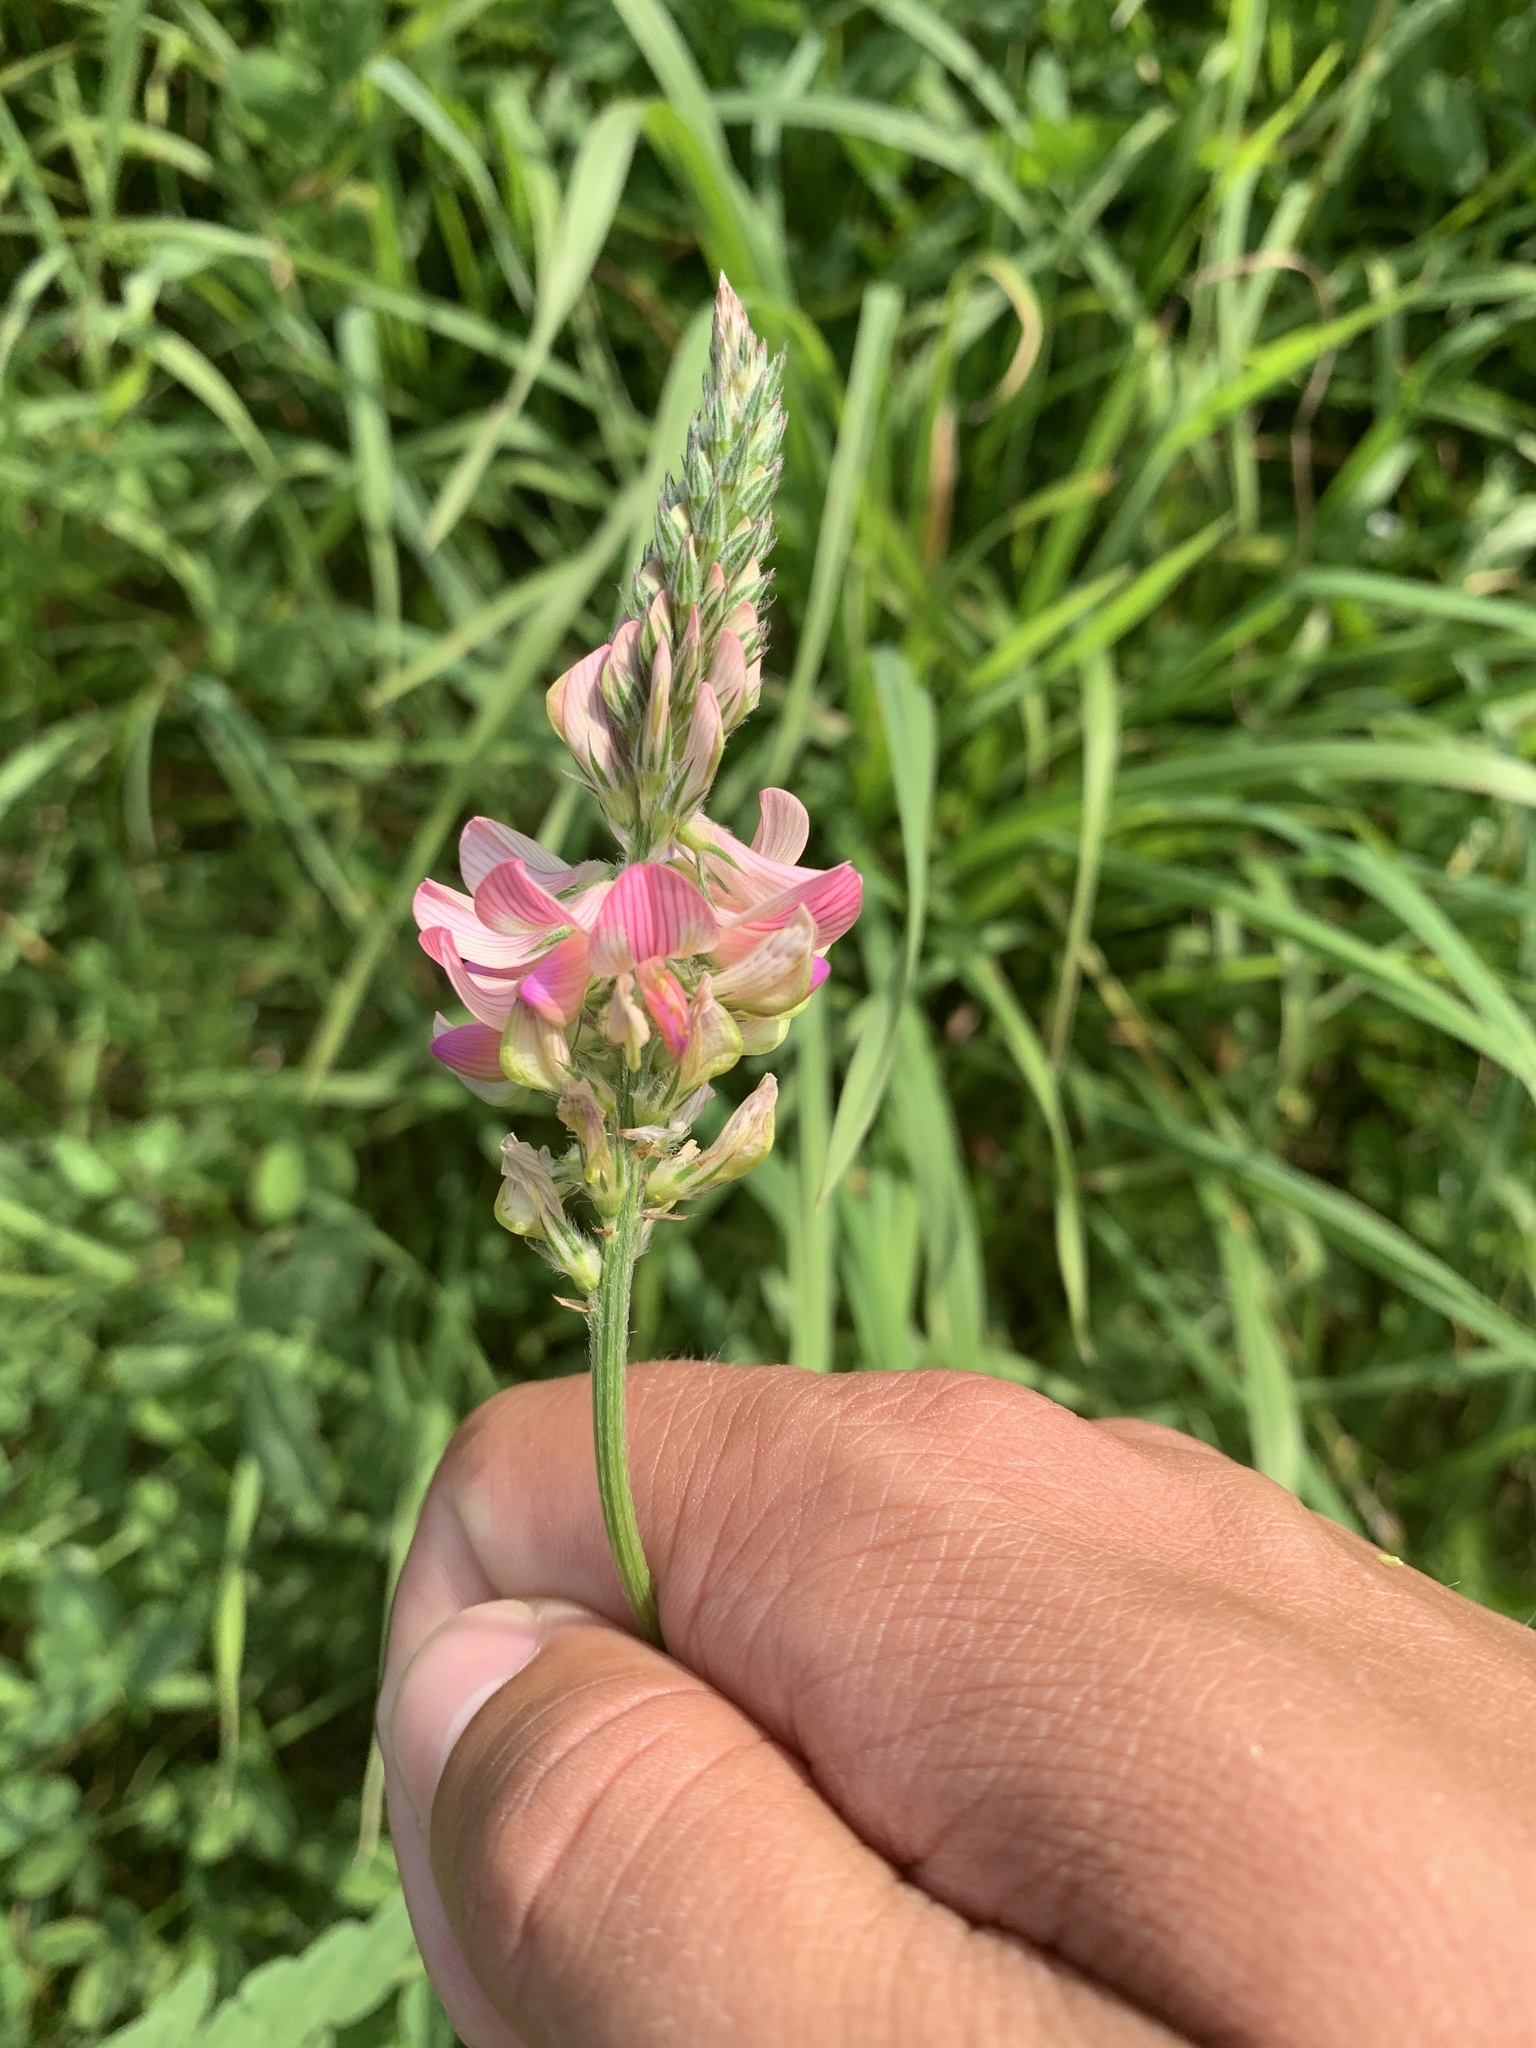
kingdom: Plantae
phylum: Tracheophyta
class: Magnoliopsida
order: Fabales
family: Fabaceae
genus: Onobrychis
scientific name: Onobrychis viciifolia
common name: Sainfoin
